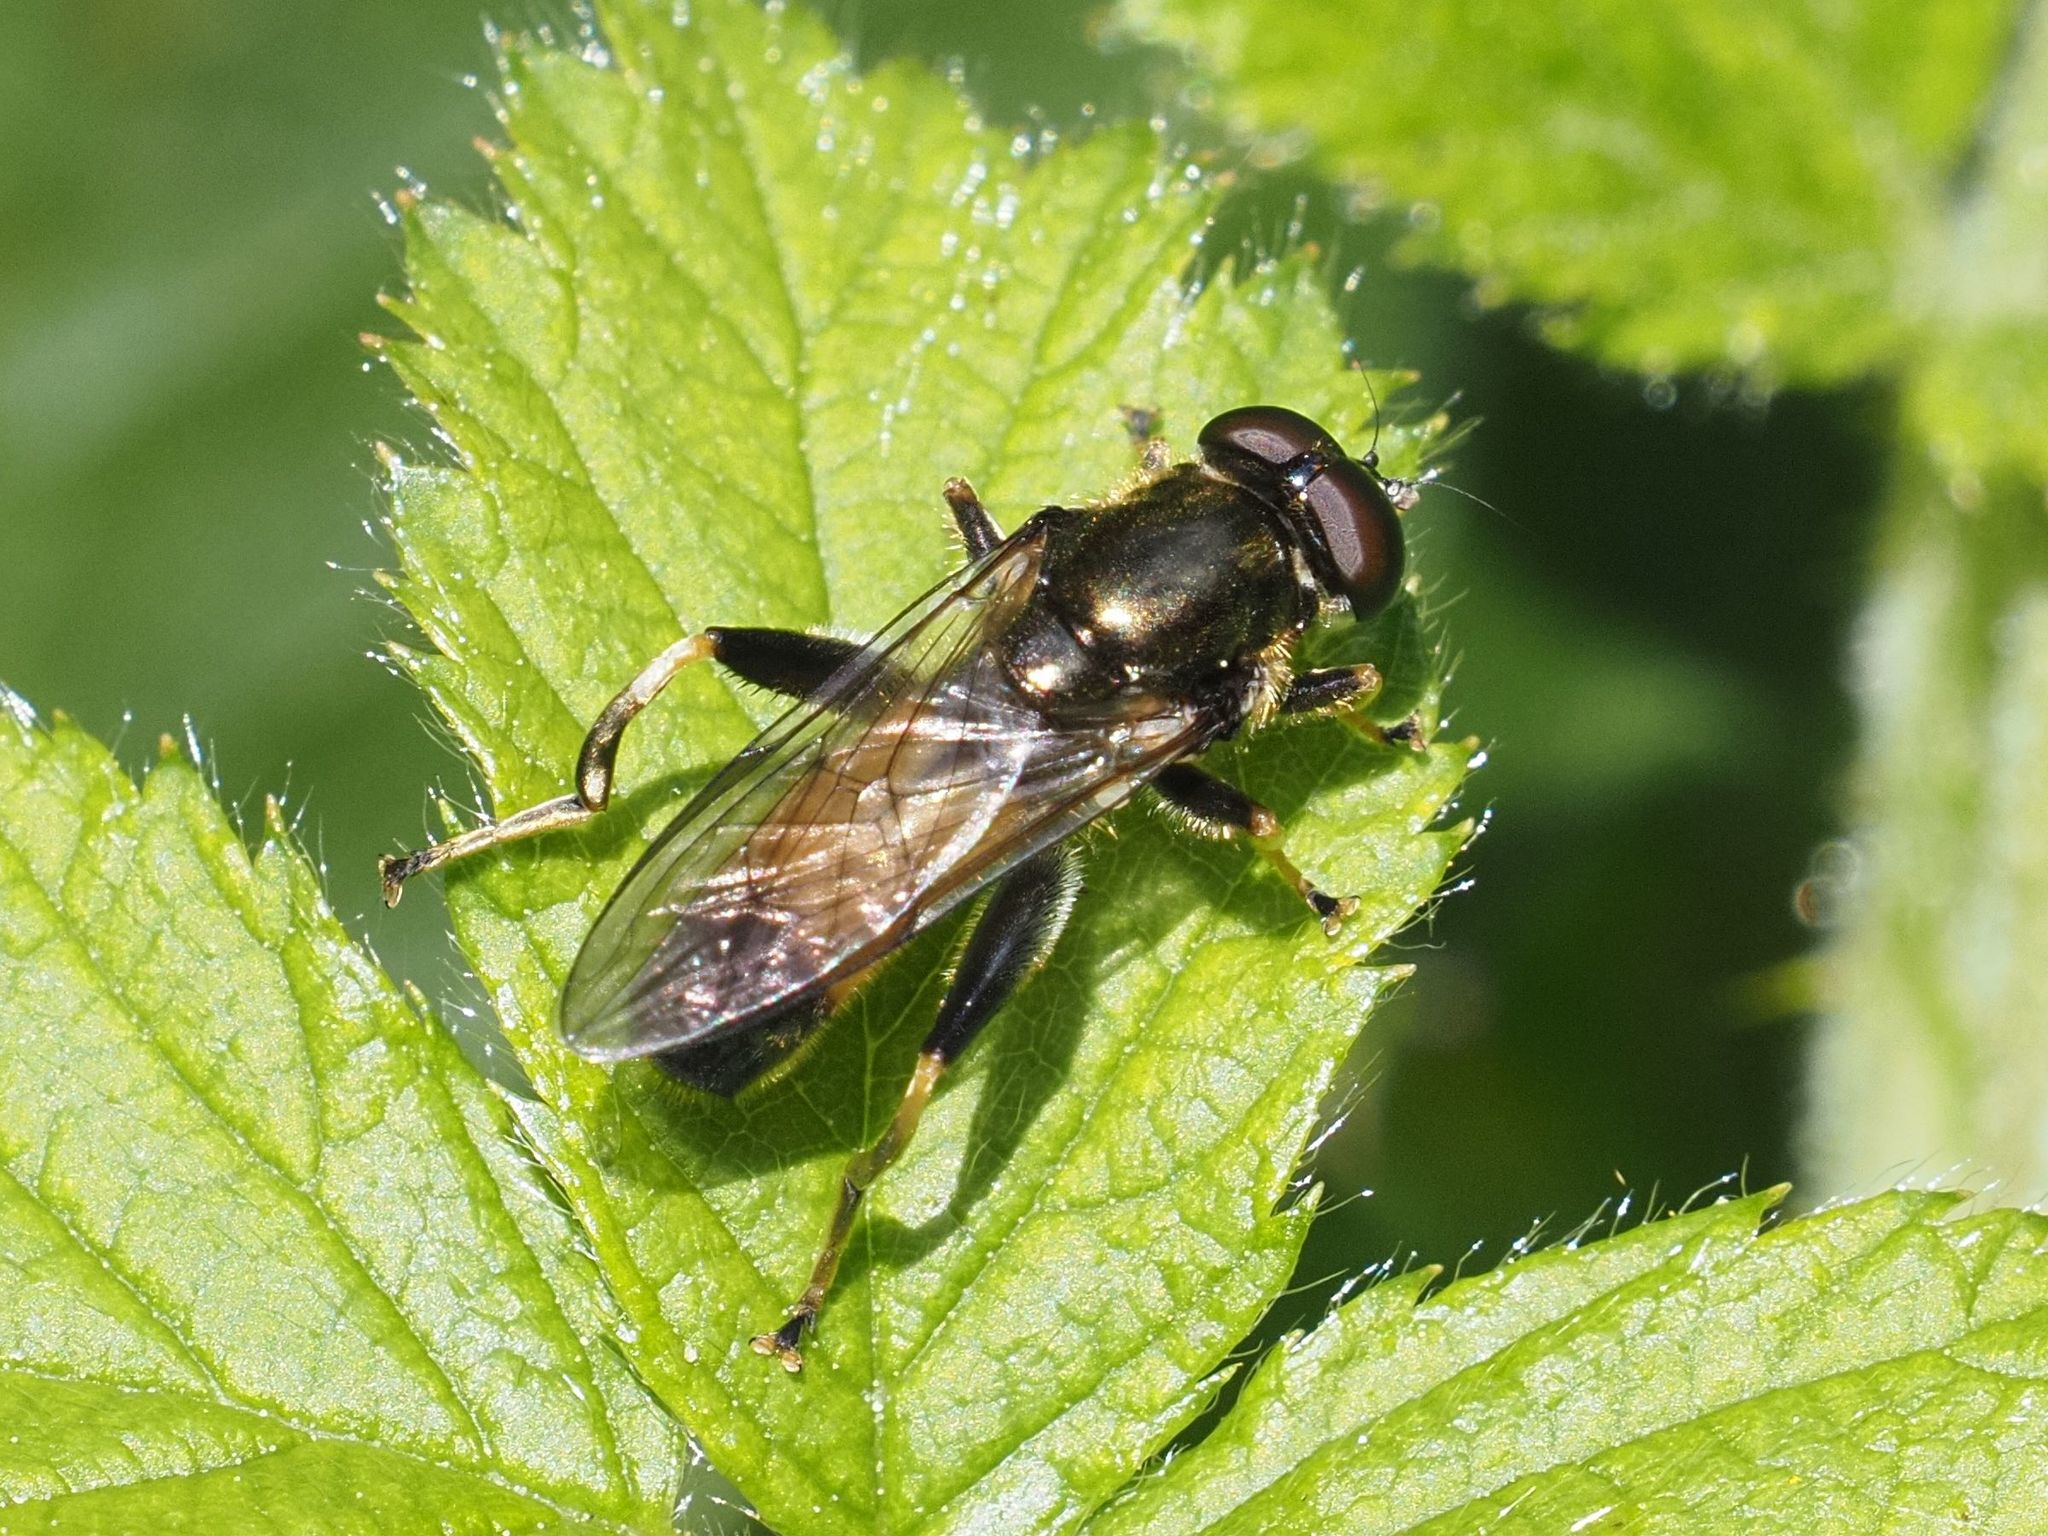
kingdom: Animalia
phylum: Arthropoda
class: Insecta
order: Diptera
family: Syrphidae
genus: Xylota
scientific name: Xylota segnis
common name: Brown-toed forest fly
